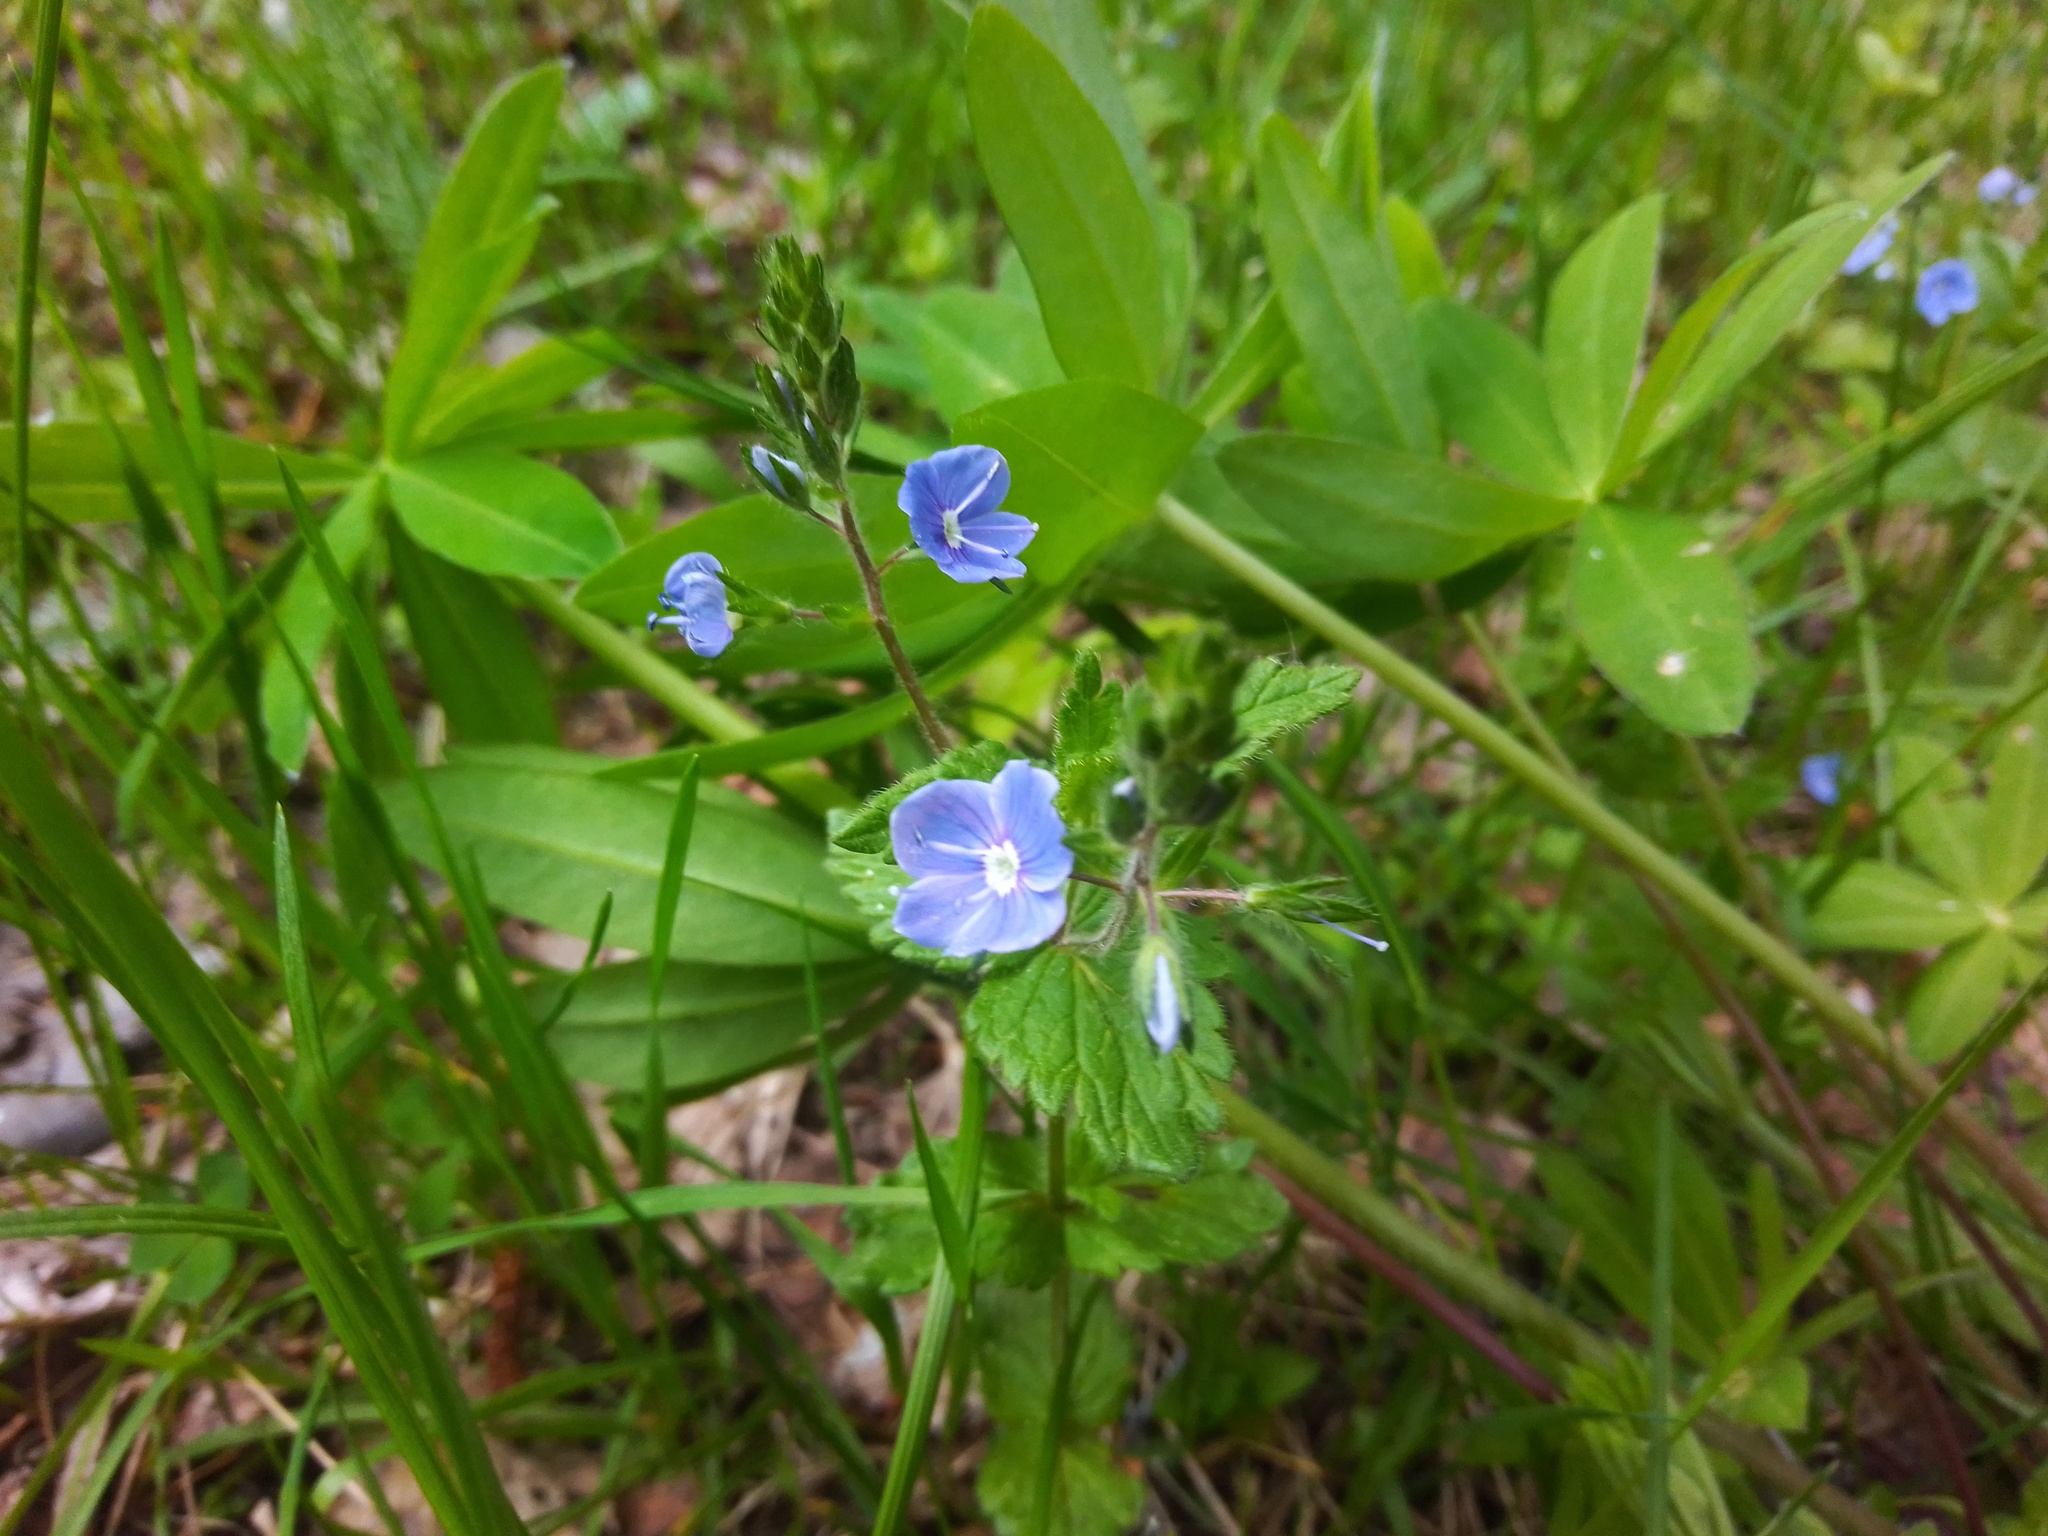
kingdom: Plantae
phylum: Tracheophyta
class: Magnoliopsida
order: Lamiales
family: Plantaginaceae
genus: Veronica
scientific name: Veronica chamaedrys
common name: Germander speedwell
